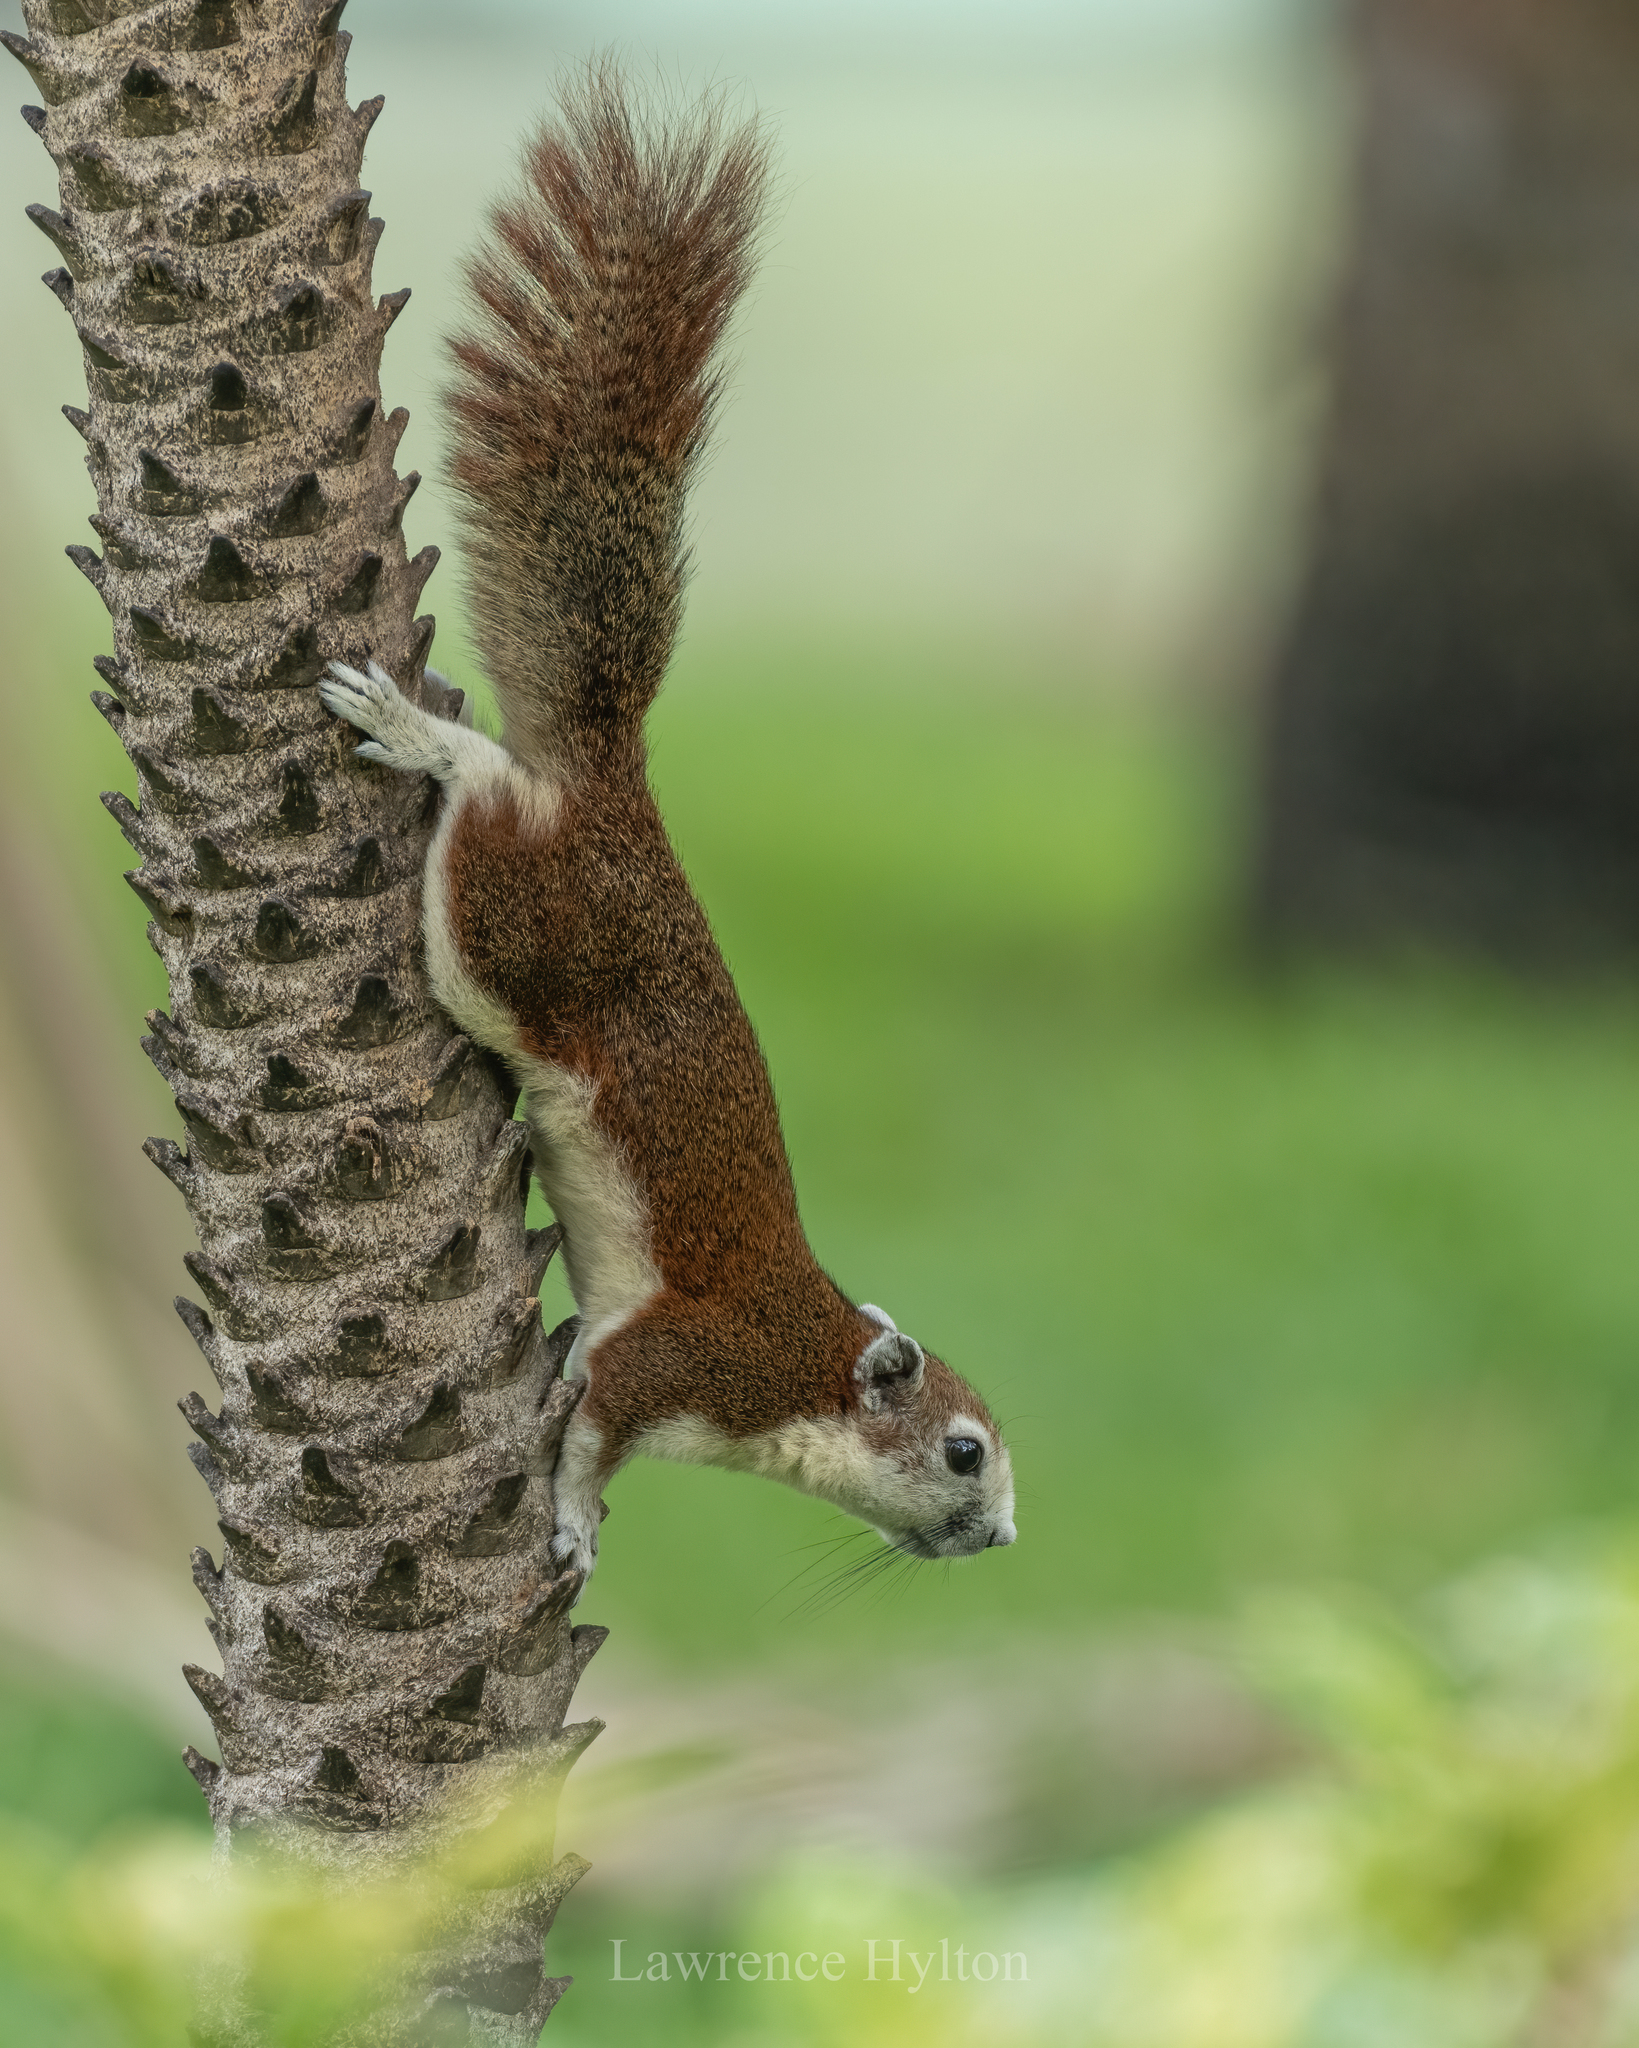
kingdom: Animalia
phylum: Chordata
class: Mammalia
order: Rodentia
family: Sciuridae
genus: Callosciurus
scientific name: Callosciurus finlaysonii
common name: Finlayson's squirrel
